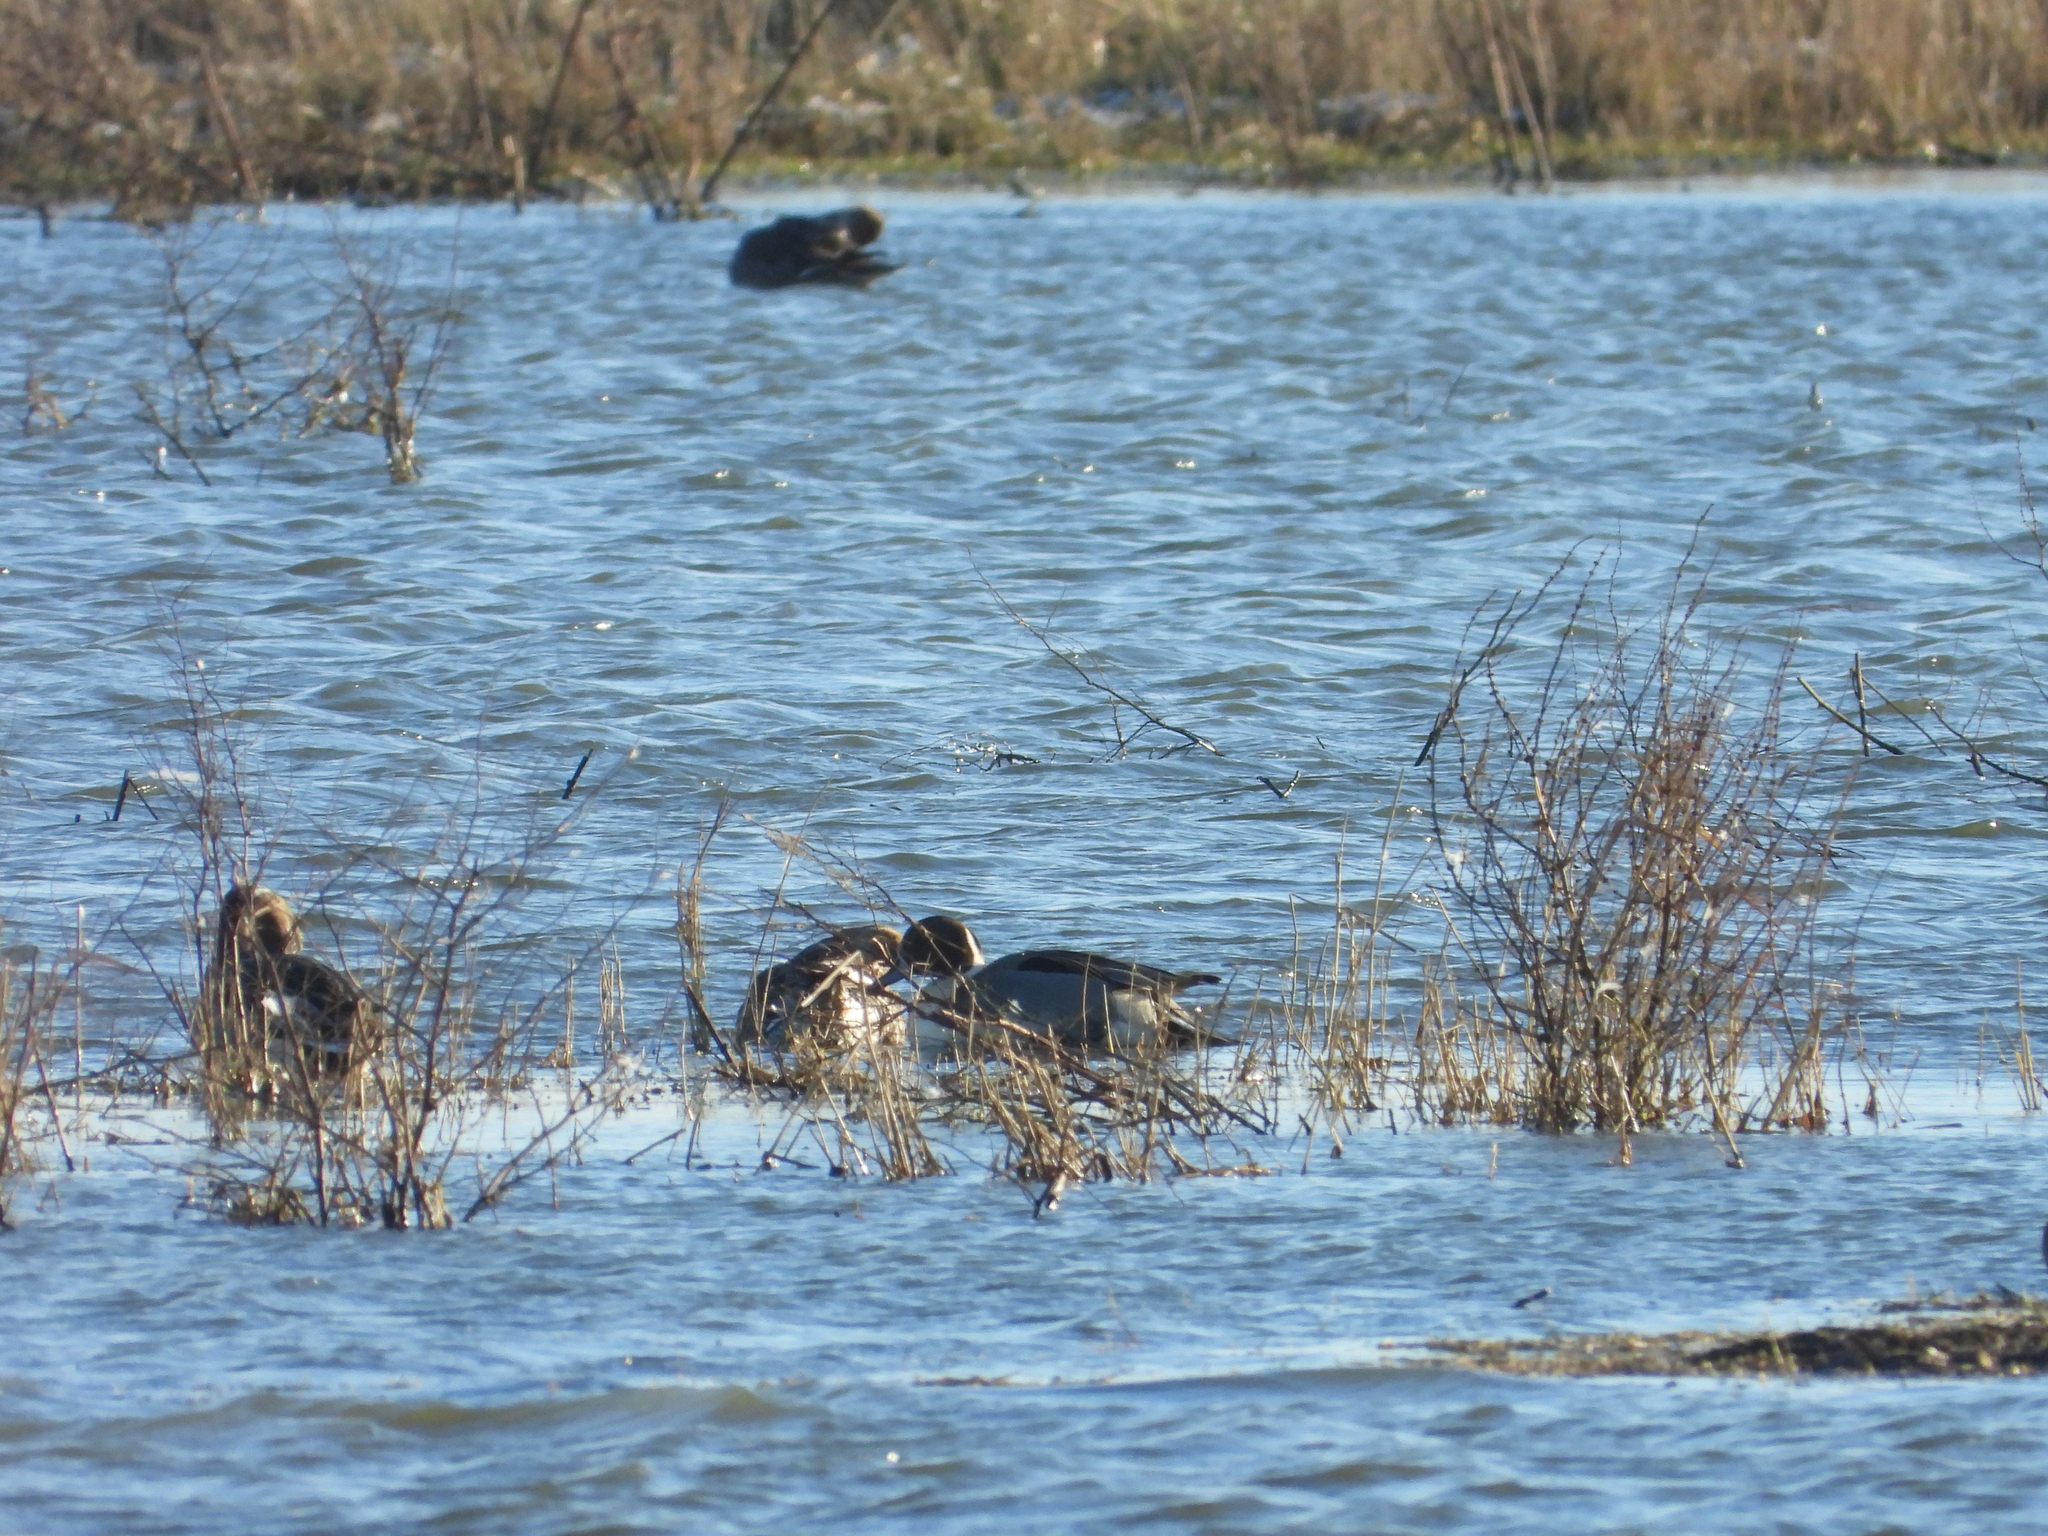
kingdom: Animalia
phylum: Chordata
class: Aves
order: Anseriformes
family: Anatidae
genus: Anas
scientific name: Anas acuta
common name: Northern pintail
